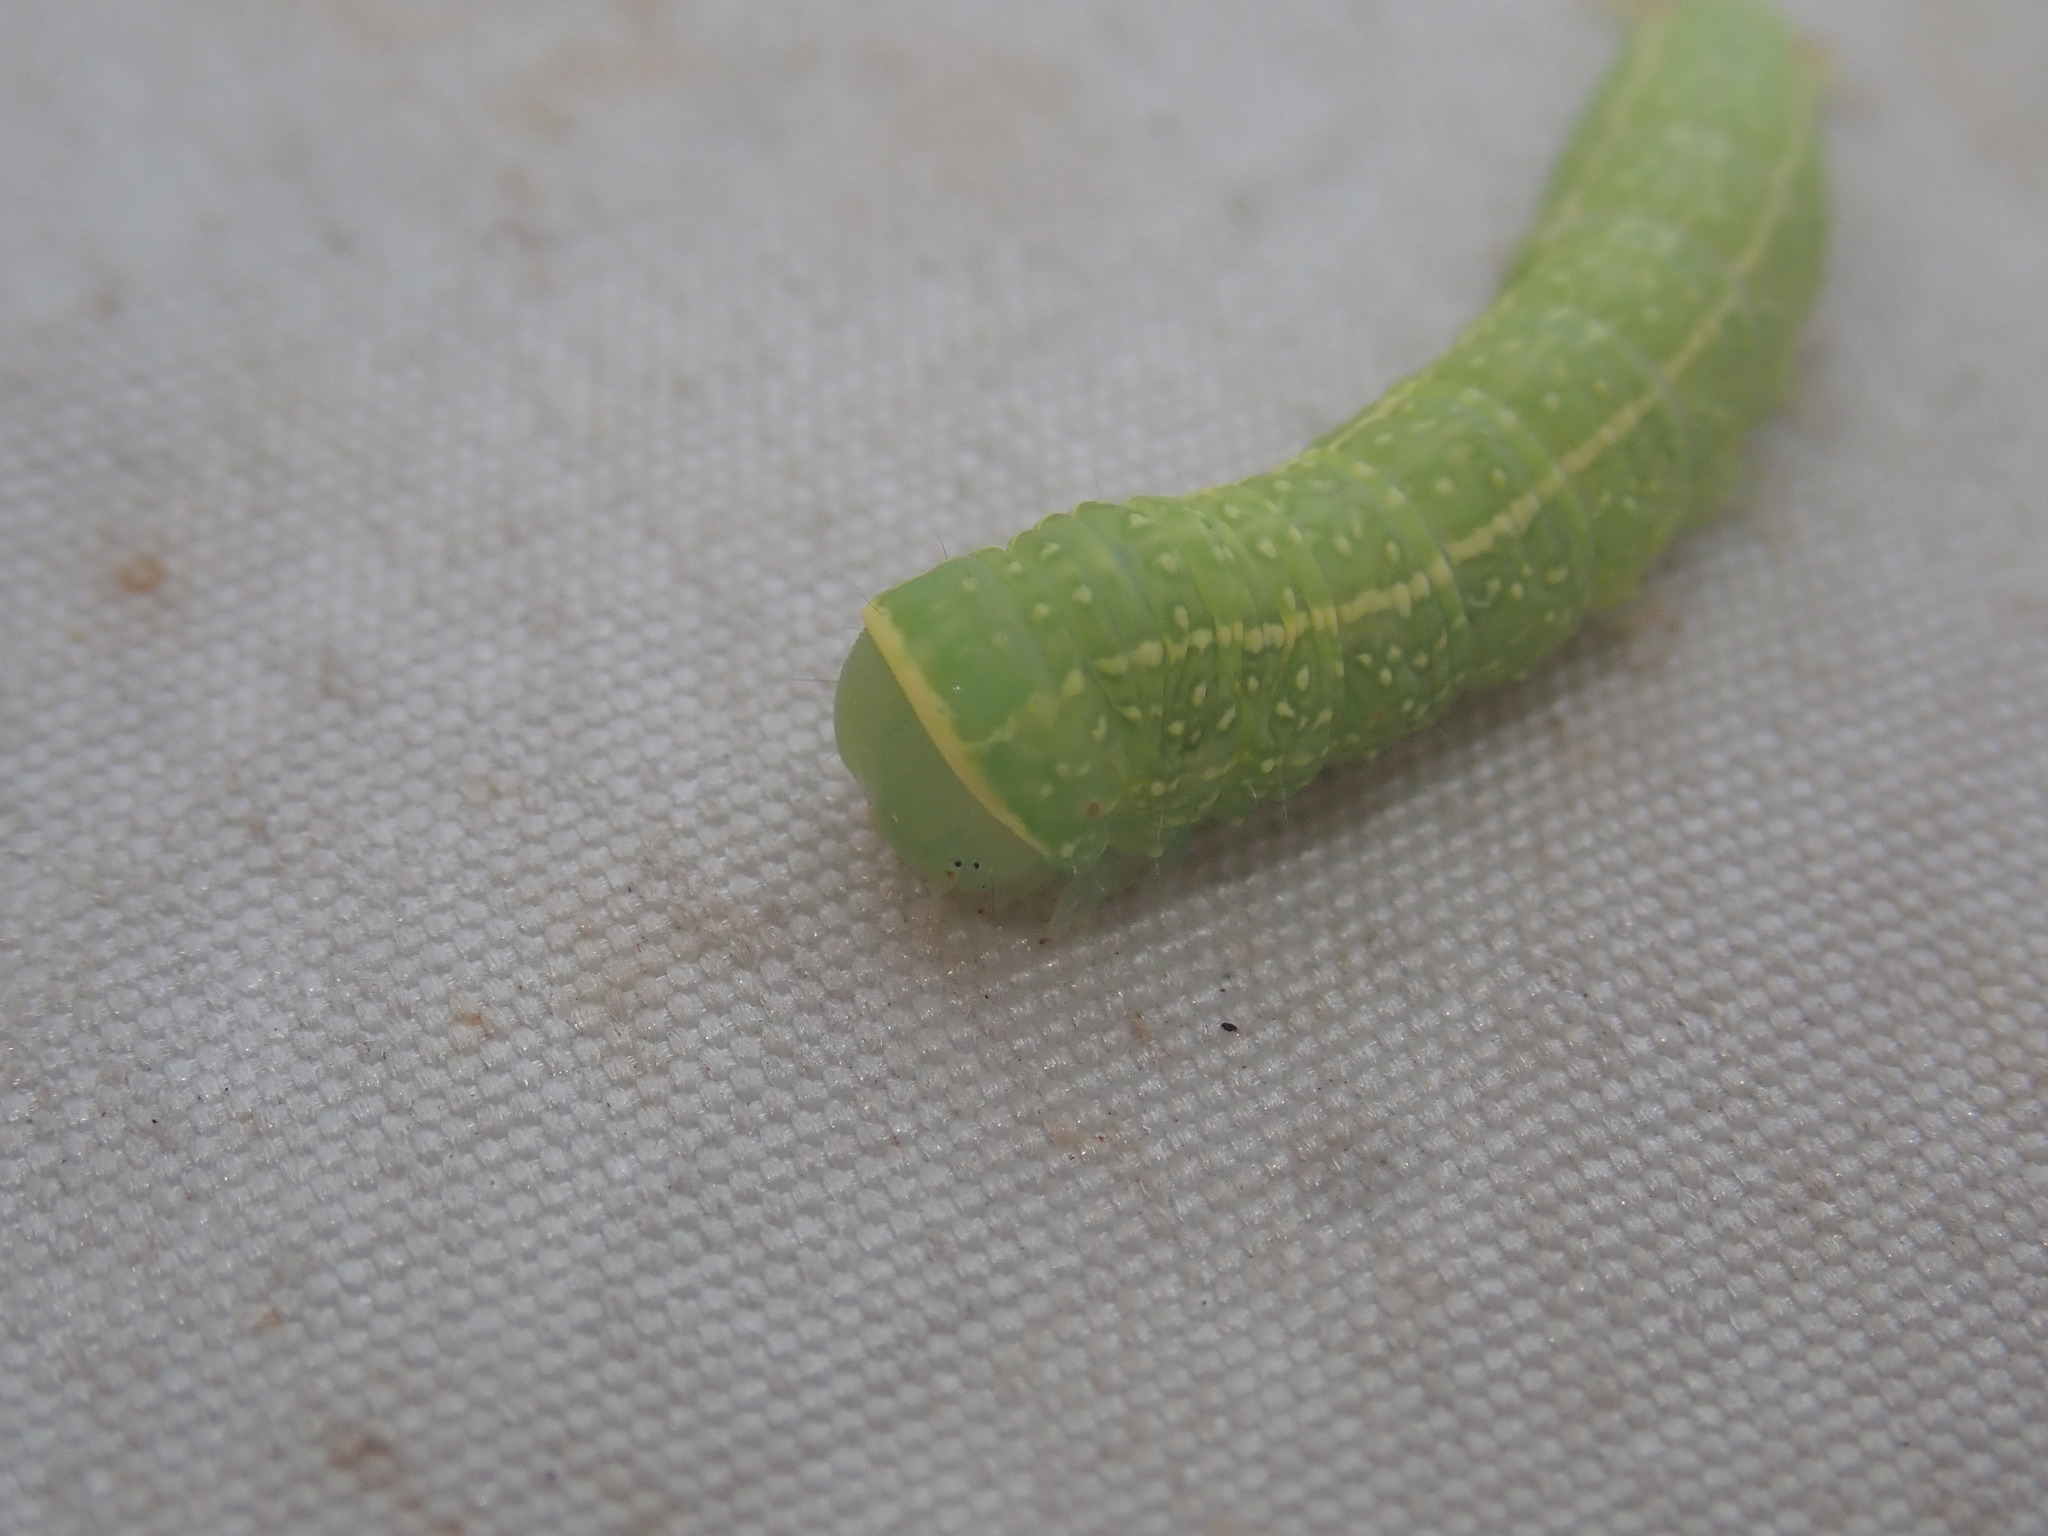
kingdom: Animalia
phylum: Arthropoda
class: Insecta
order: Lepidoptera
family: Nolidae
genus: Pseudoips
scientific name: Pseudoips prasinana
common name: Green silver-lines
